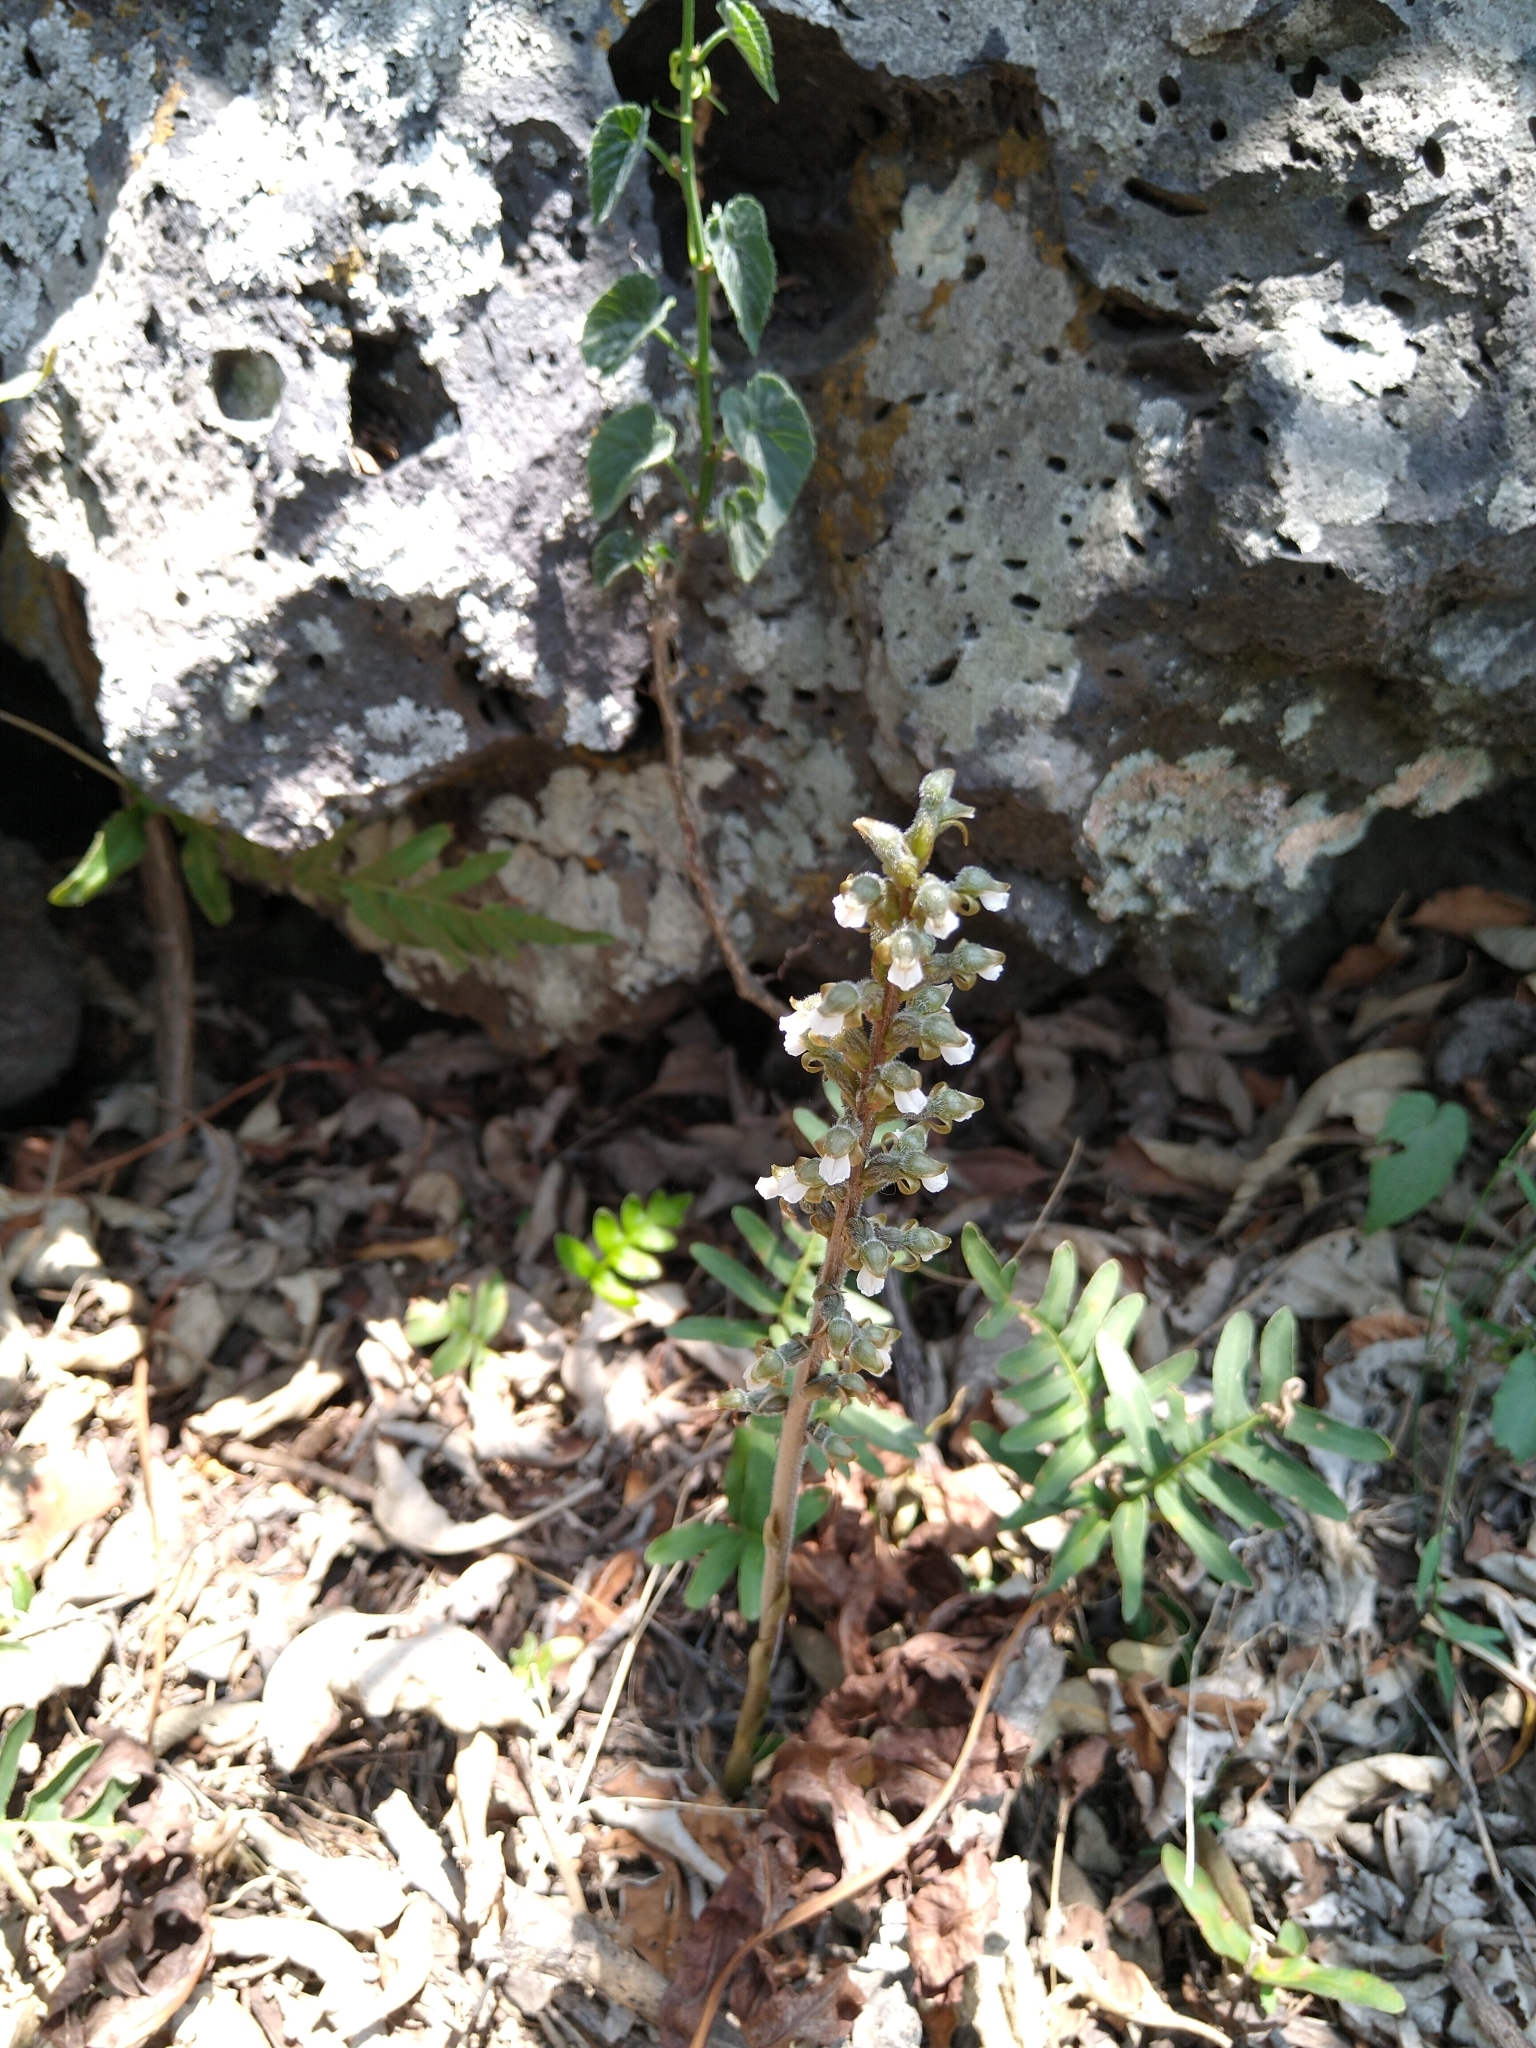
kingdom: Plantae
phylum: Tracheophyta
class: Liliopsida
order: Asparagales
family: Orchidaceae
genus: Sarcoglottis
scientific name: Sarcoglottis schaffneri
